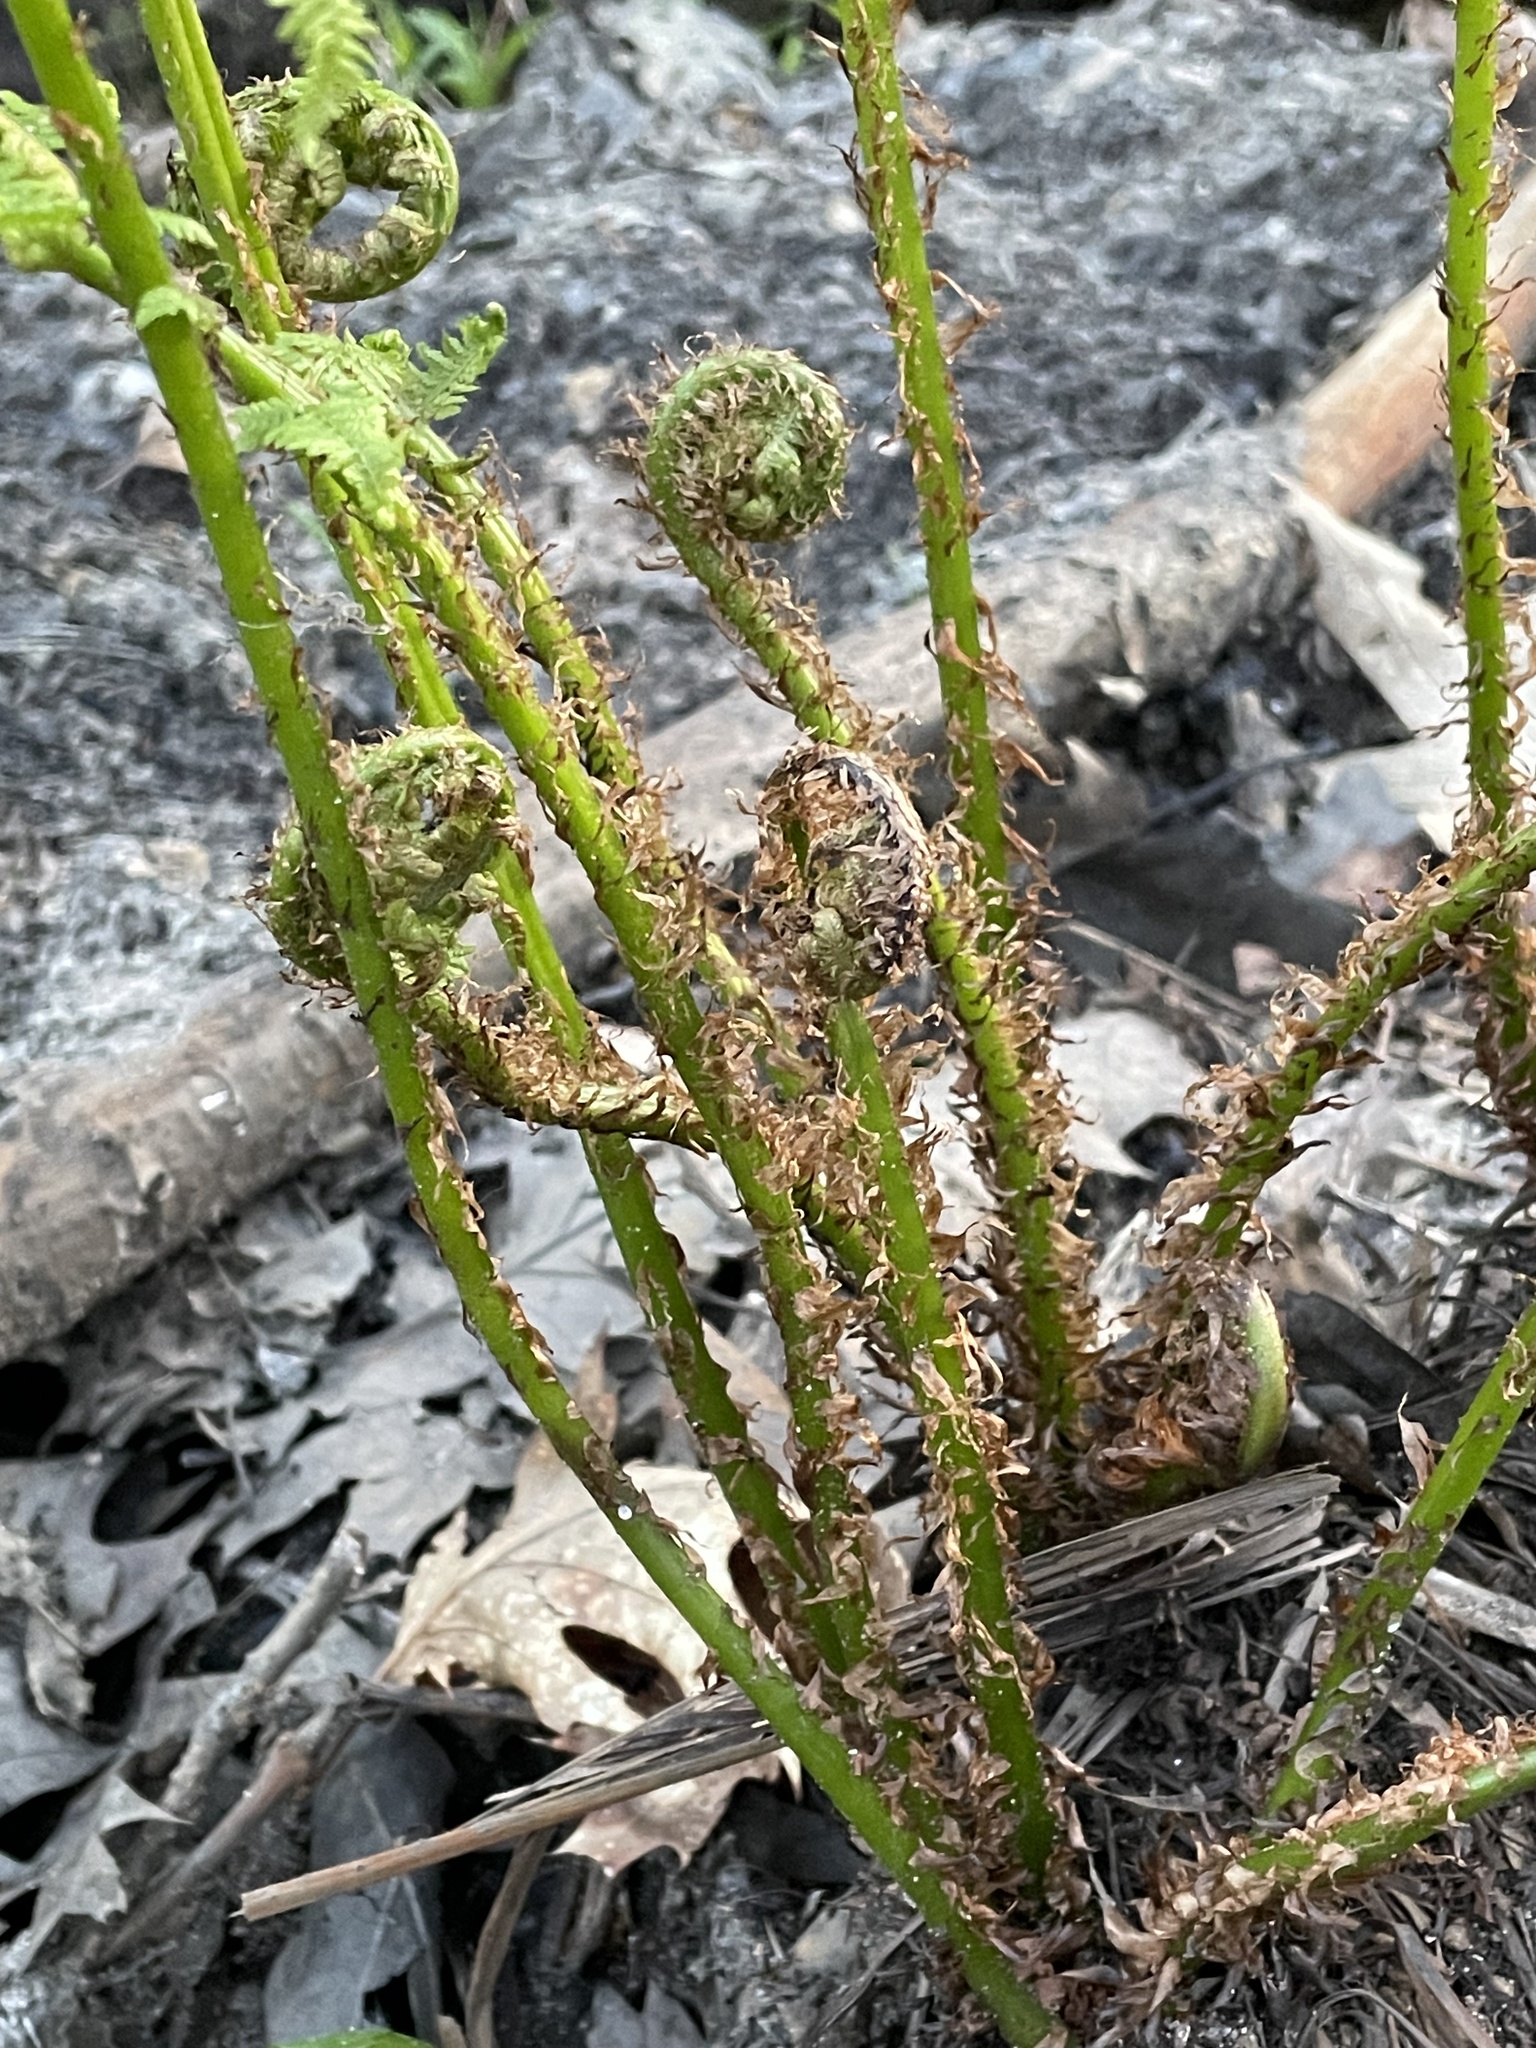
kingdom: Plantae
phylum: Tracheophyta
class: Polypodiopsida
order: Polypodiales
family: Athyriaceae
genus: Athyrium
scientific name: Athyrium filix-femina
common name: Lady fern
